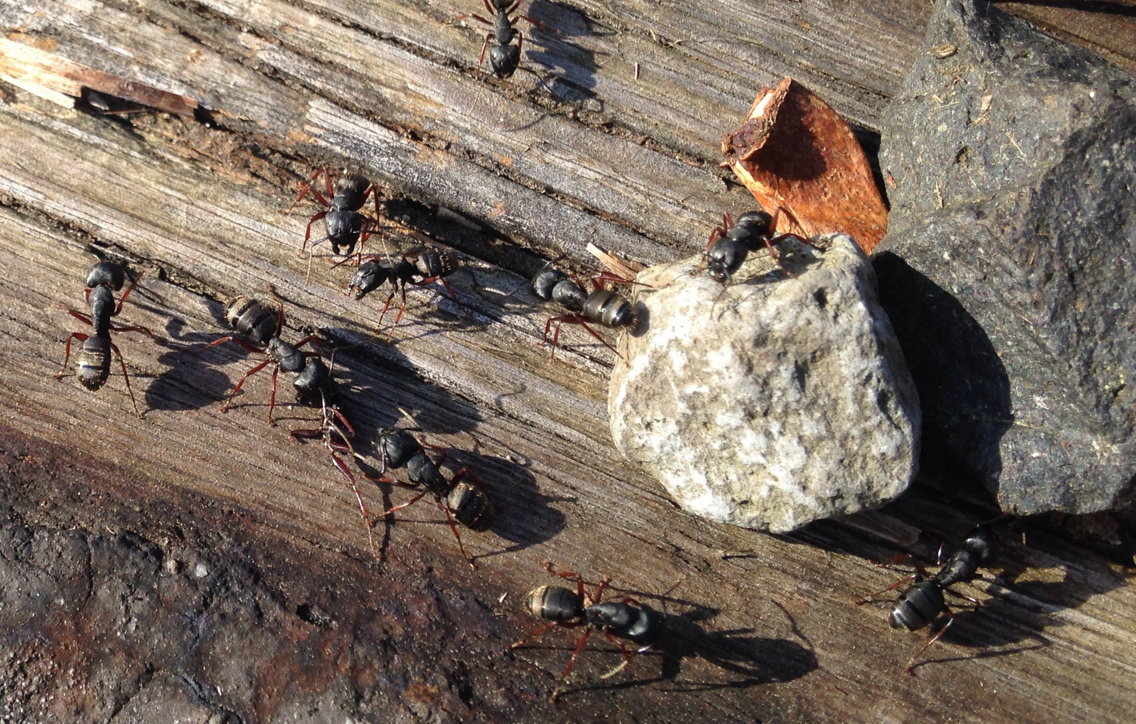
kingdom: Animalia
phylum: Arthropoda
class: Insecta
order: Hymenoptera
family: Formicidae
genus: Camponotus
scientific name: Camponotus modoc
